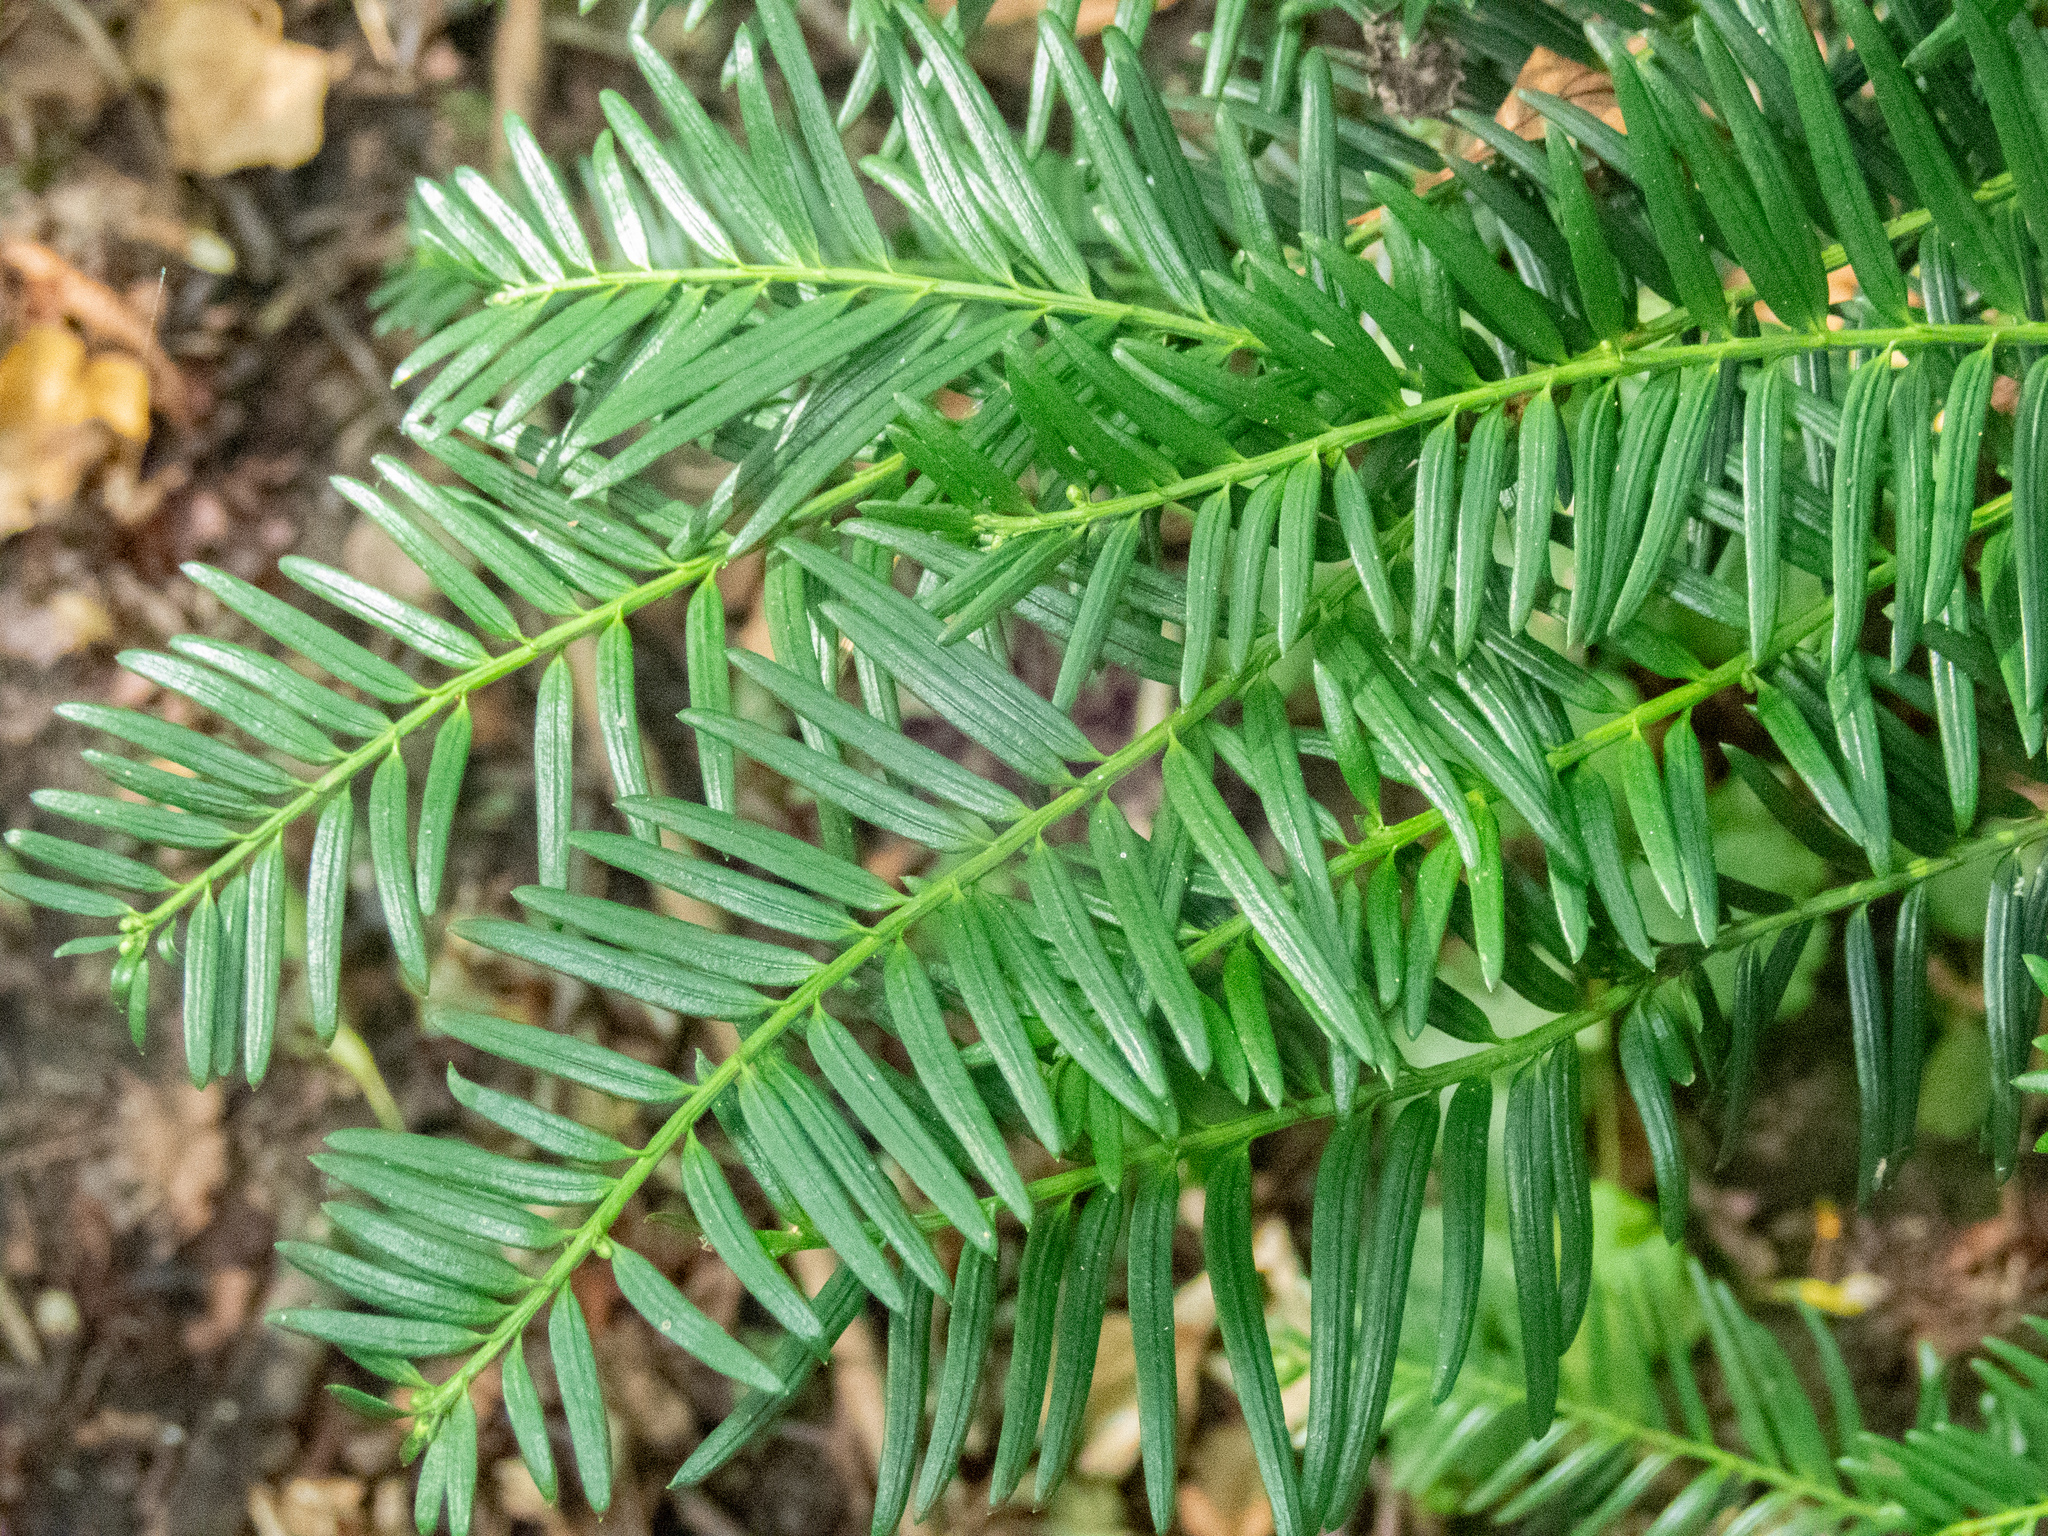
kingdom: Plantae
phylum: Tracheophyta
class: Pinopsida
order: Pinales
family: Taxaceae
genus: Taxus
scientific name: Taxus baccata
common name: Yew
